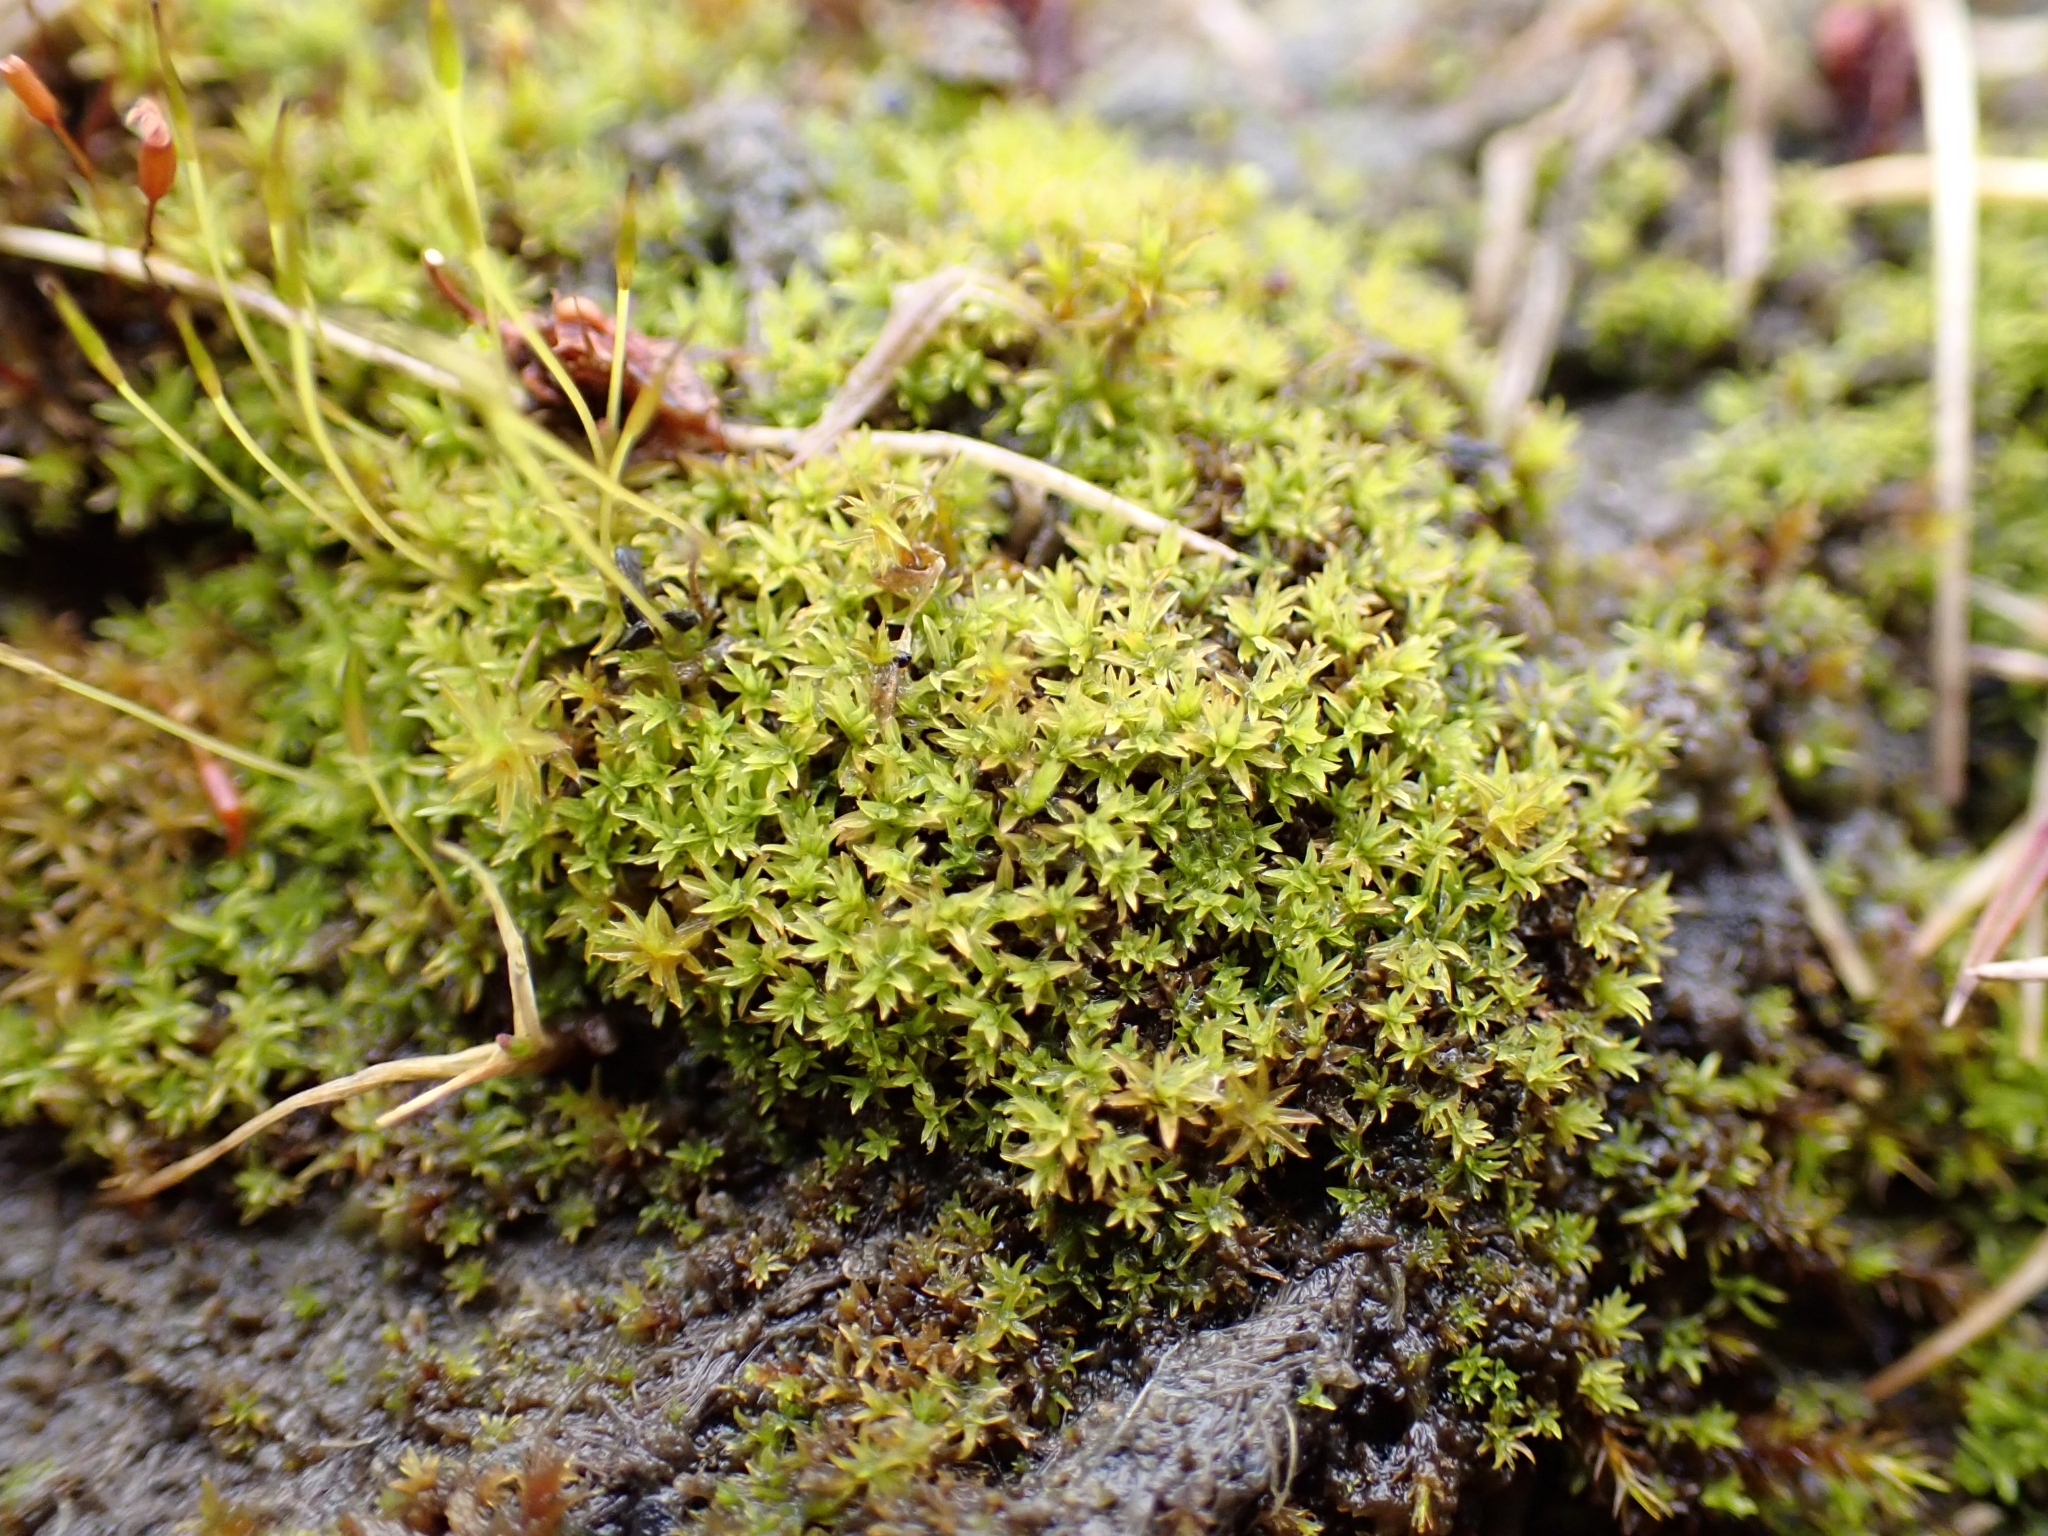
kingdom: Plantae
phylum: Bryophyta
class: Bryopsida
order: Pottiales
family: Pottiaceae
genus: Streblotrichum
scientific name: Streblotrichum convolutum
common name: Lesser bird's-claw beard-moss
